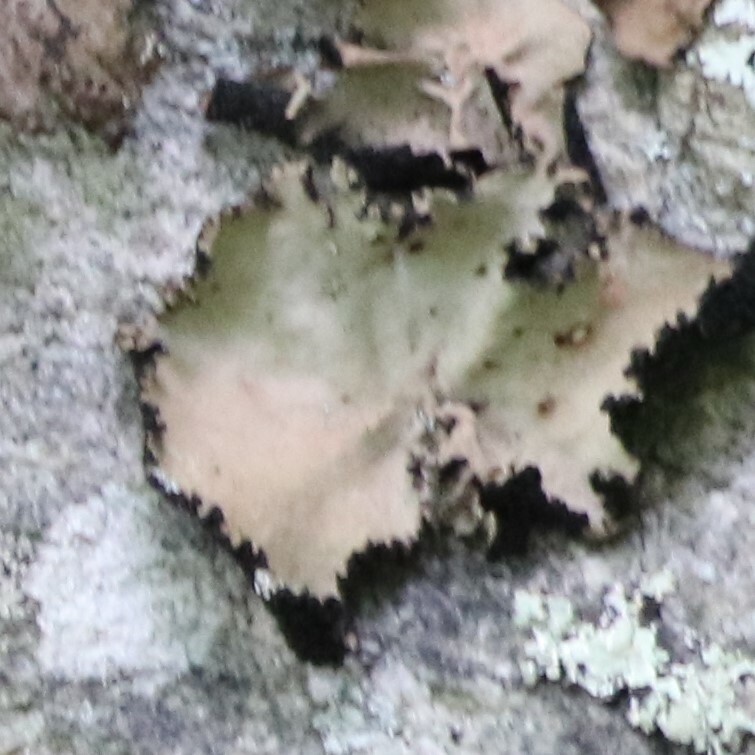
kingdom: Fungi
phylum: Ascomycota
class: Lecanoromycetes
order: Umbilicariales
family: Umbilicariaceae
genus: Umbilicaria
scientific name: Umbilicaria mammulata
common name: Smooth rock tripe
